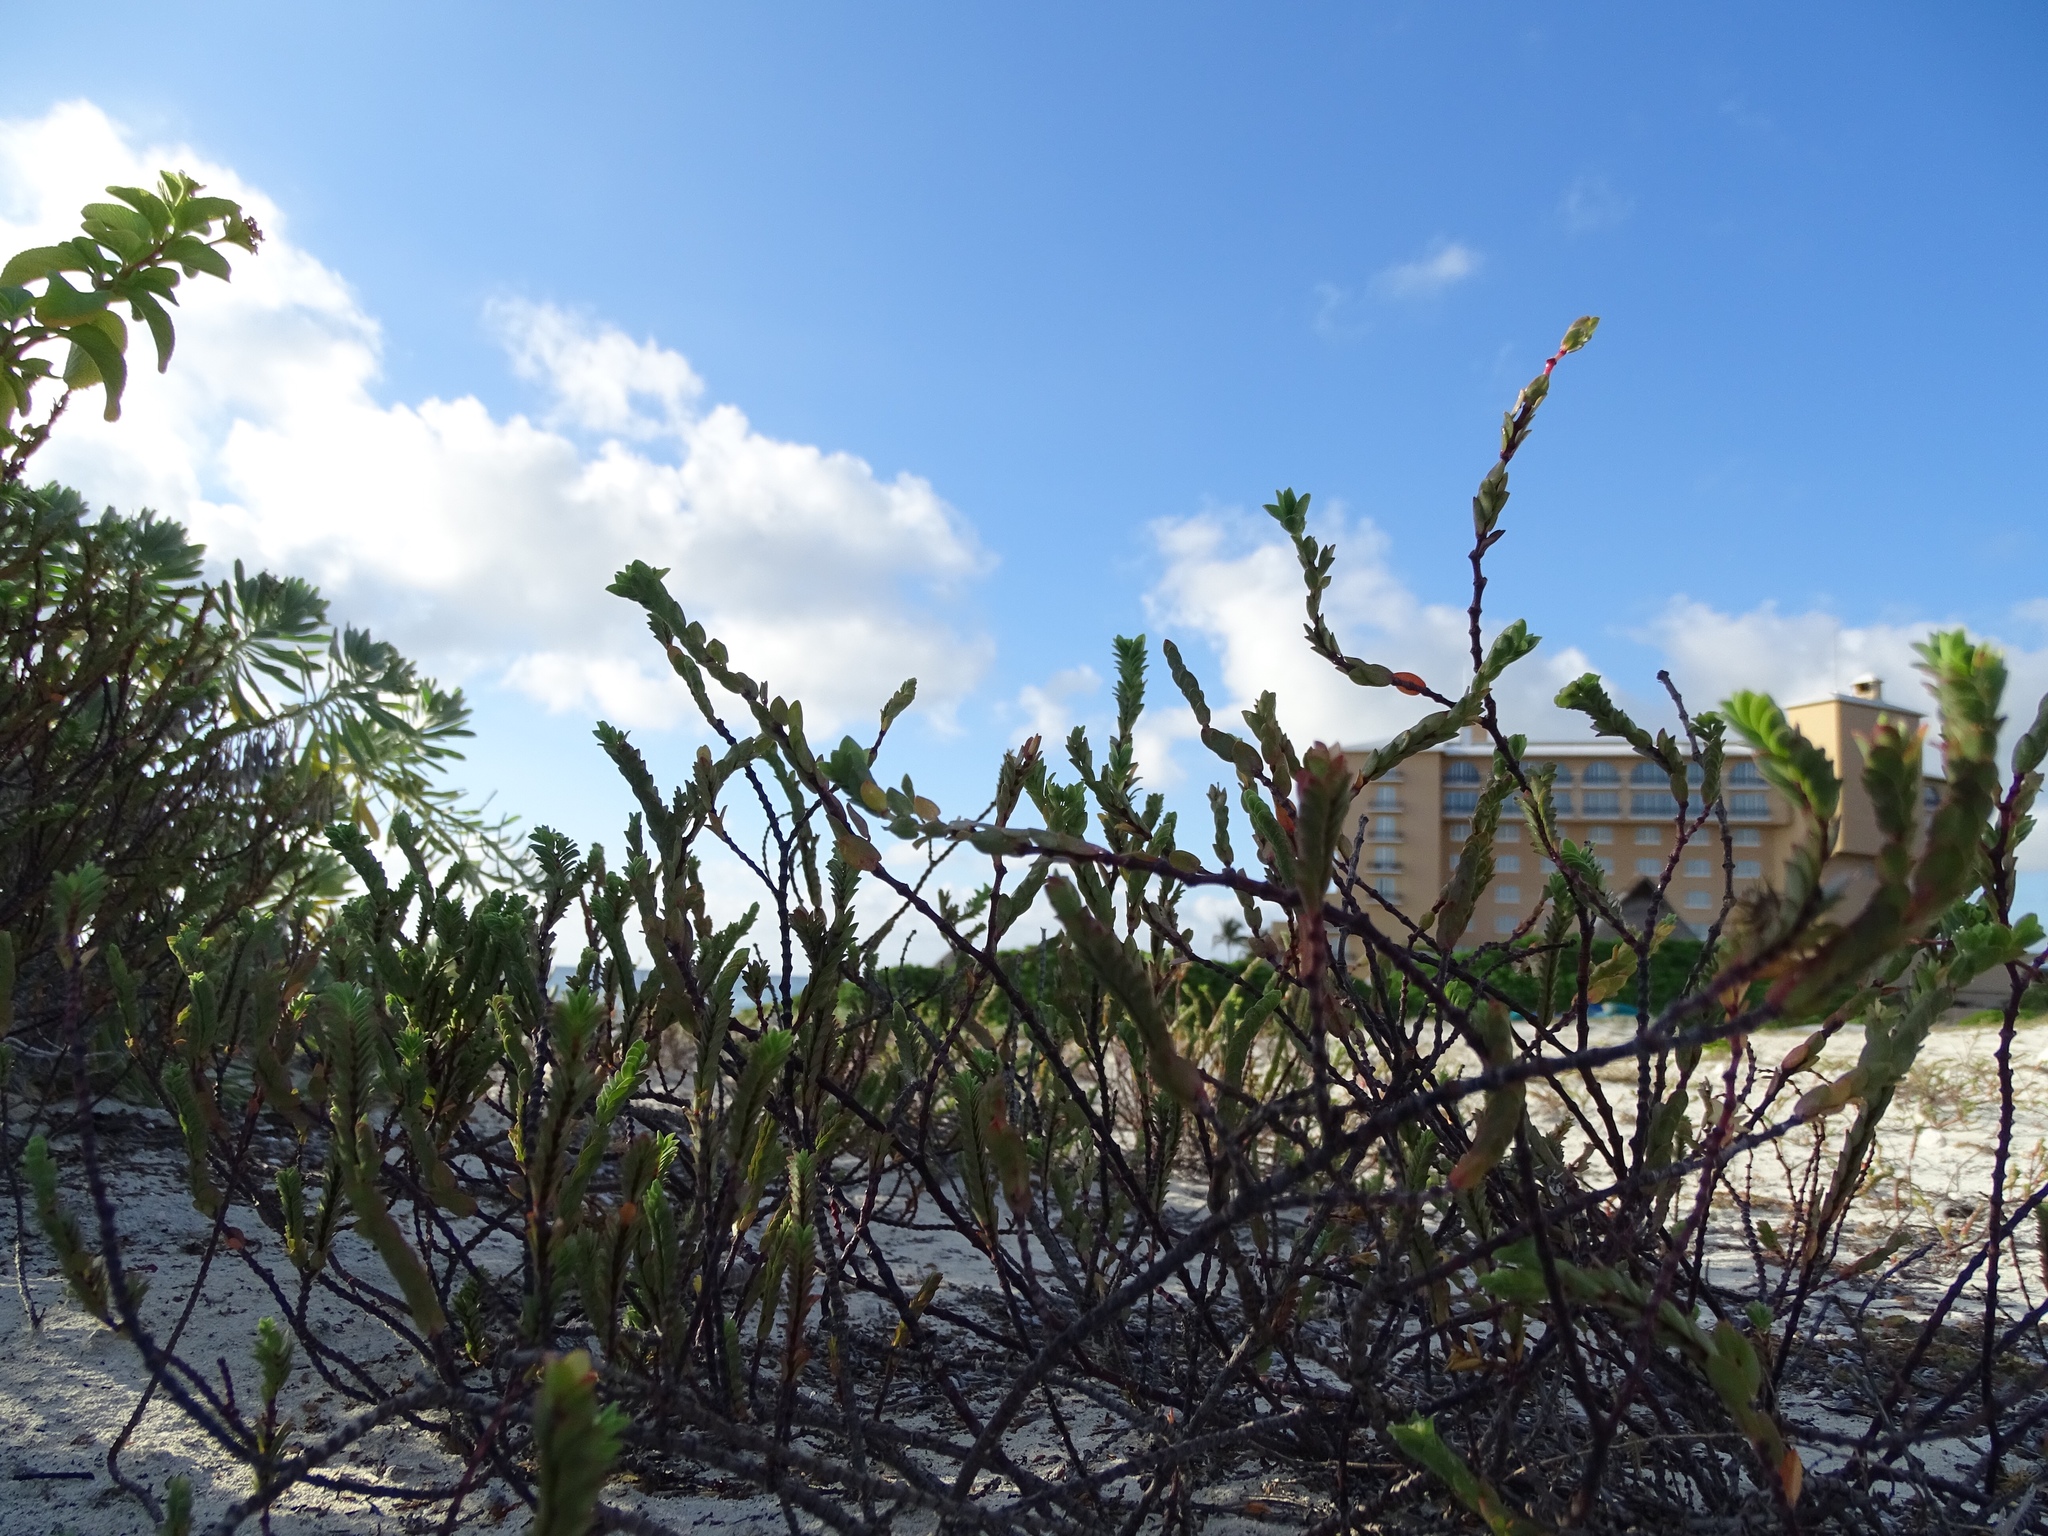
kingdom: Plantae
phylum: Tracheophyta
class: Magnoliopsida
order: Malpighiales
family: Euphorbiaceae
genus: Euphorbia
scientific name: Euphorbia mesembryanthemifolia
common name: Coastal beach sandmat
